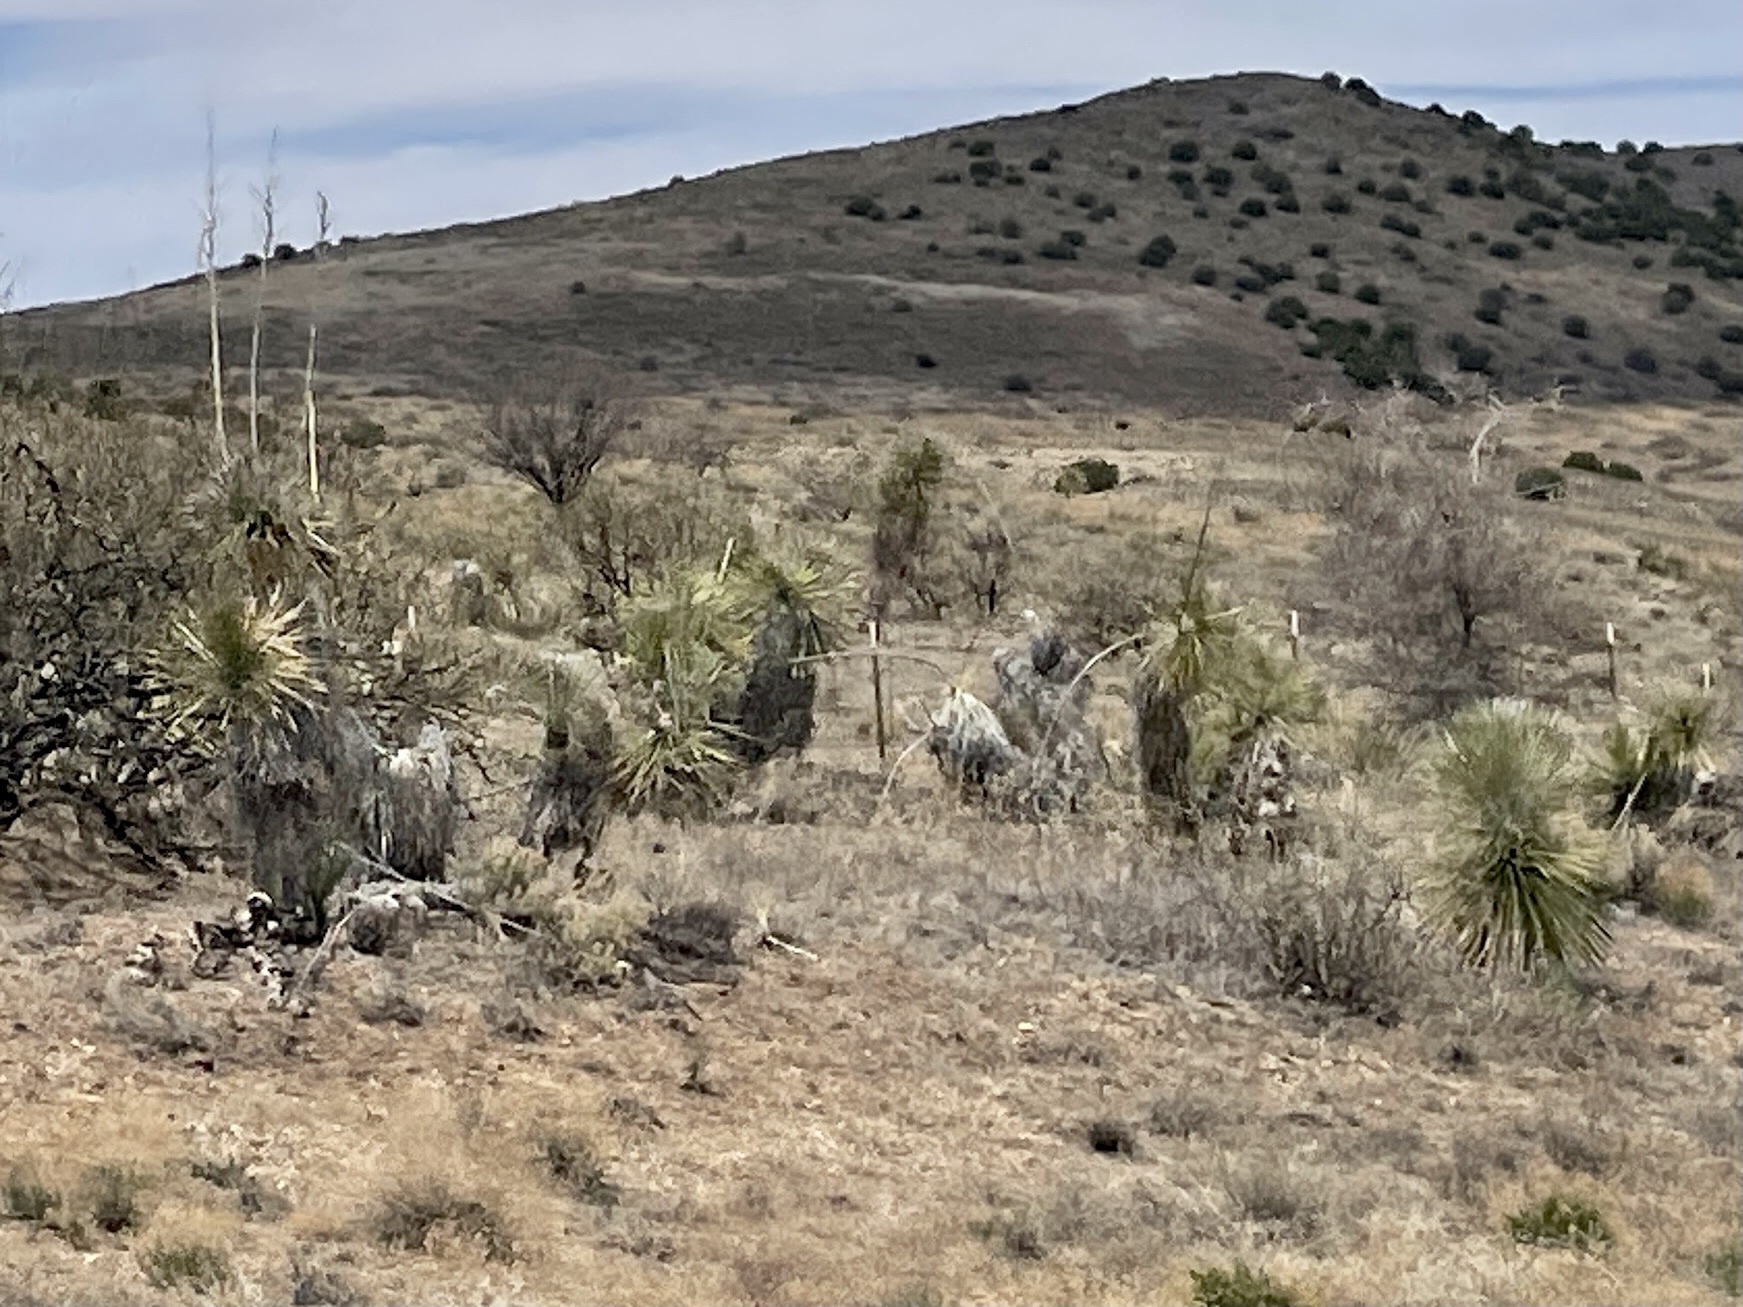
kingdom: Plantae
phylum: Tracheophyta
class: Liliopsida
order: Asparagales
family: Asparagaceae
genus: Yucca
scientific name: Yucca elata
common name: Palmella
